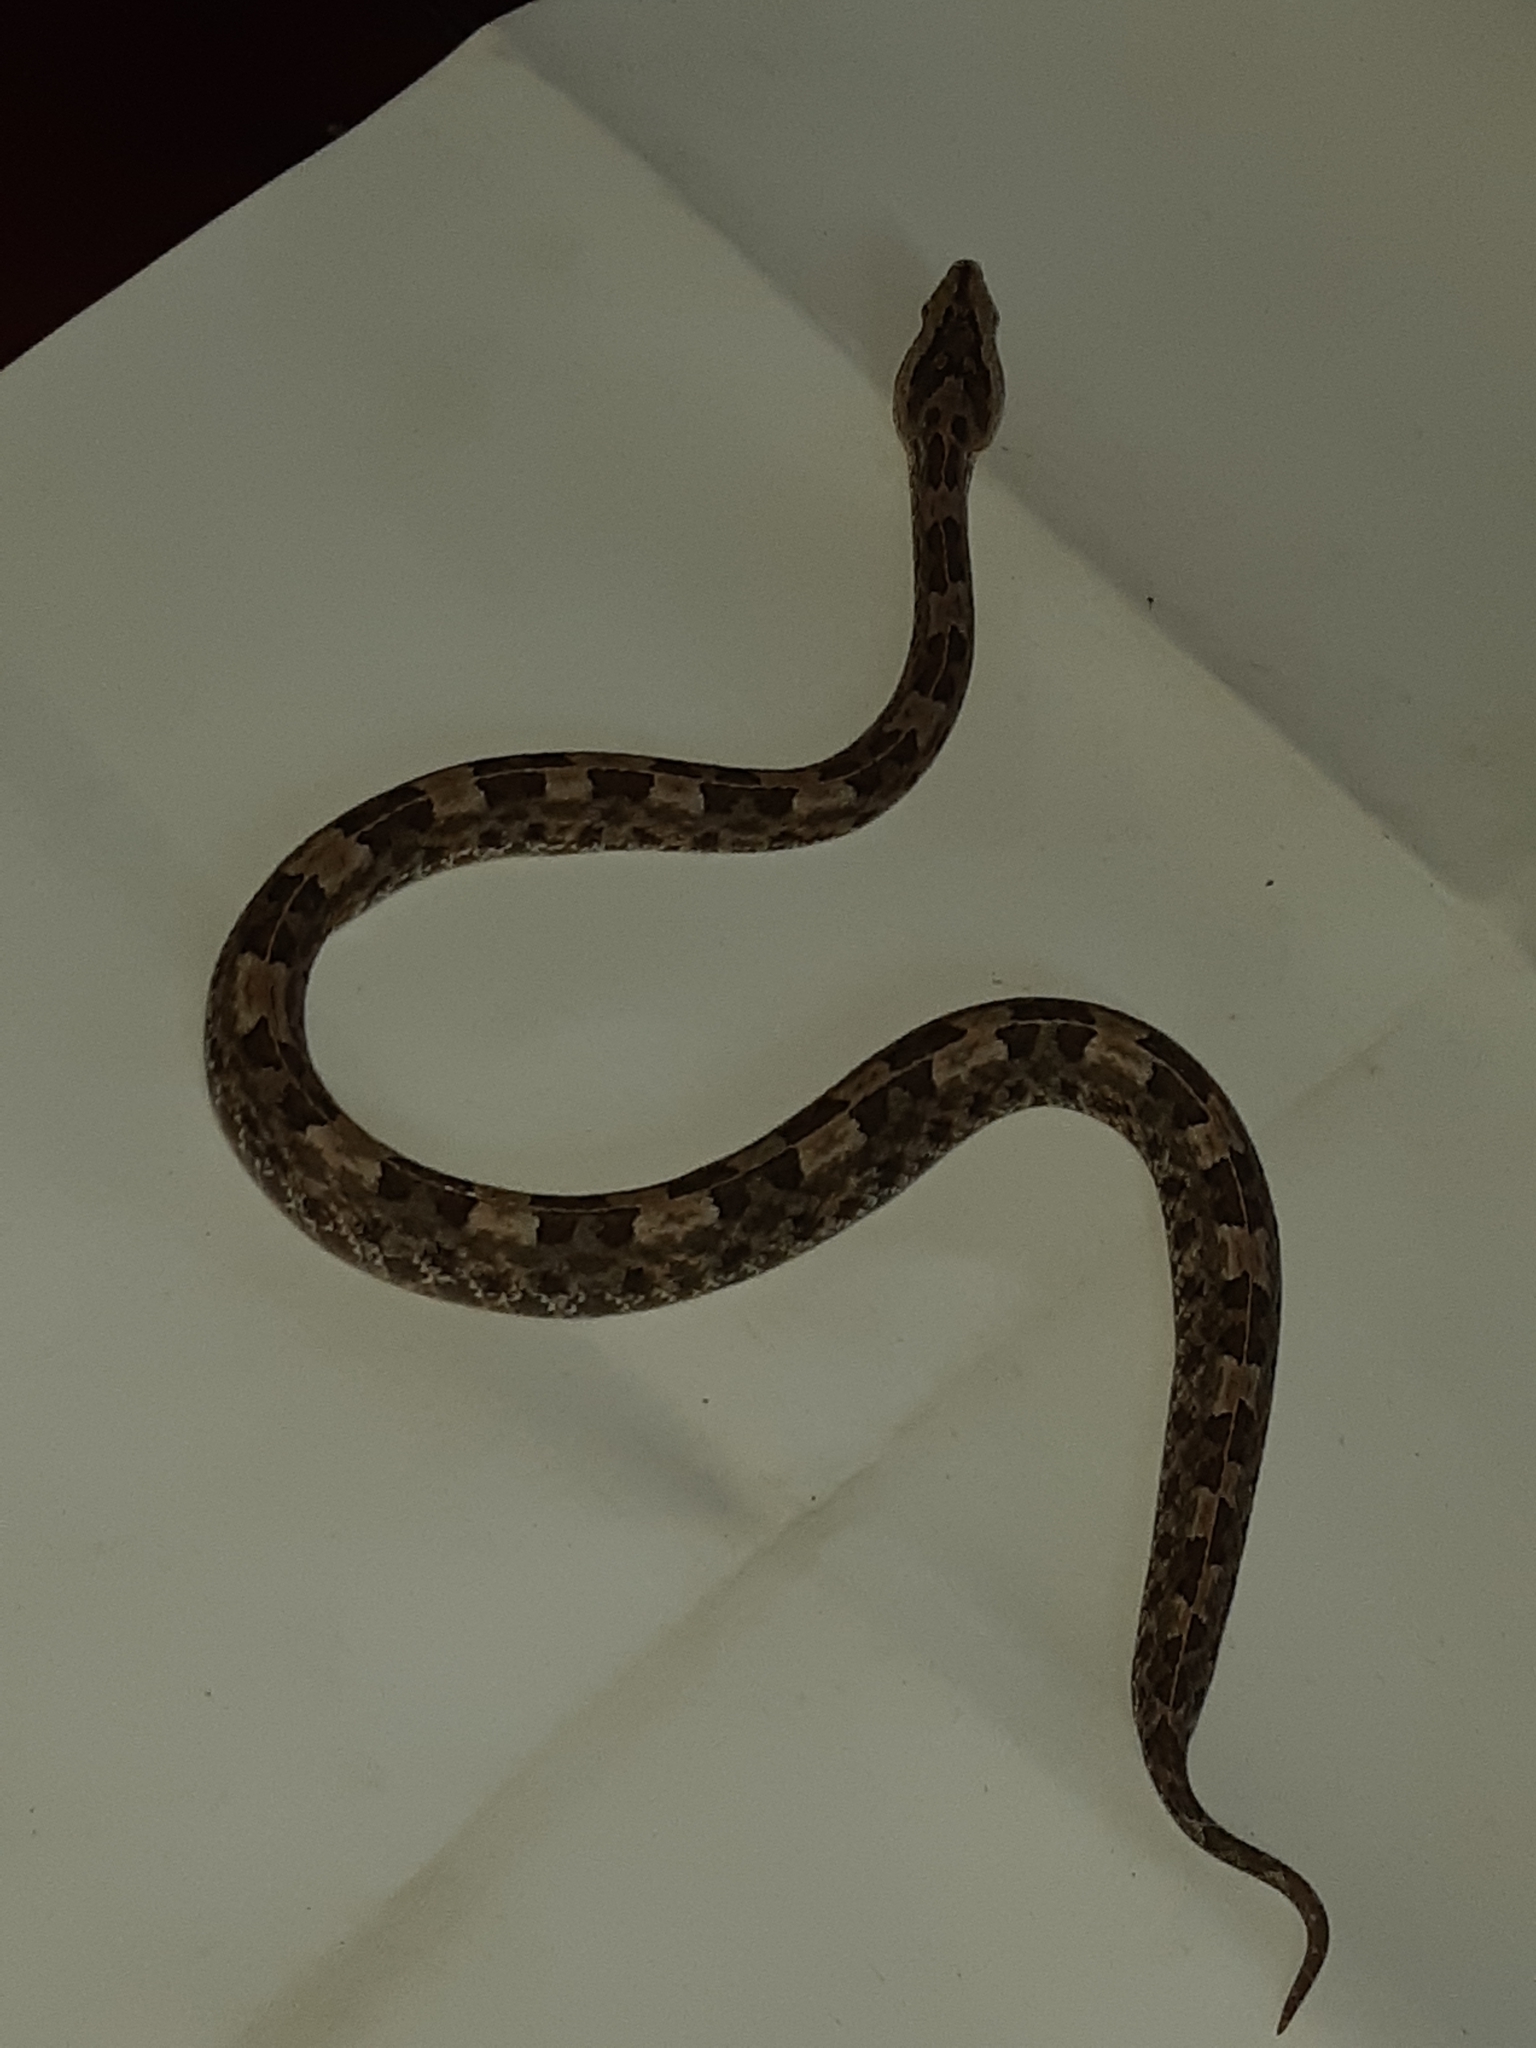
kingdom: Animalia
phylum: Chordata
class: Squamata
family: Viperidae
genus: Porthidium
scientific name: Porthidium arcosae
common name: Manabi hognose pitviper
